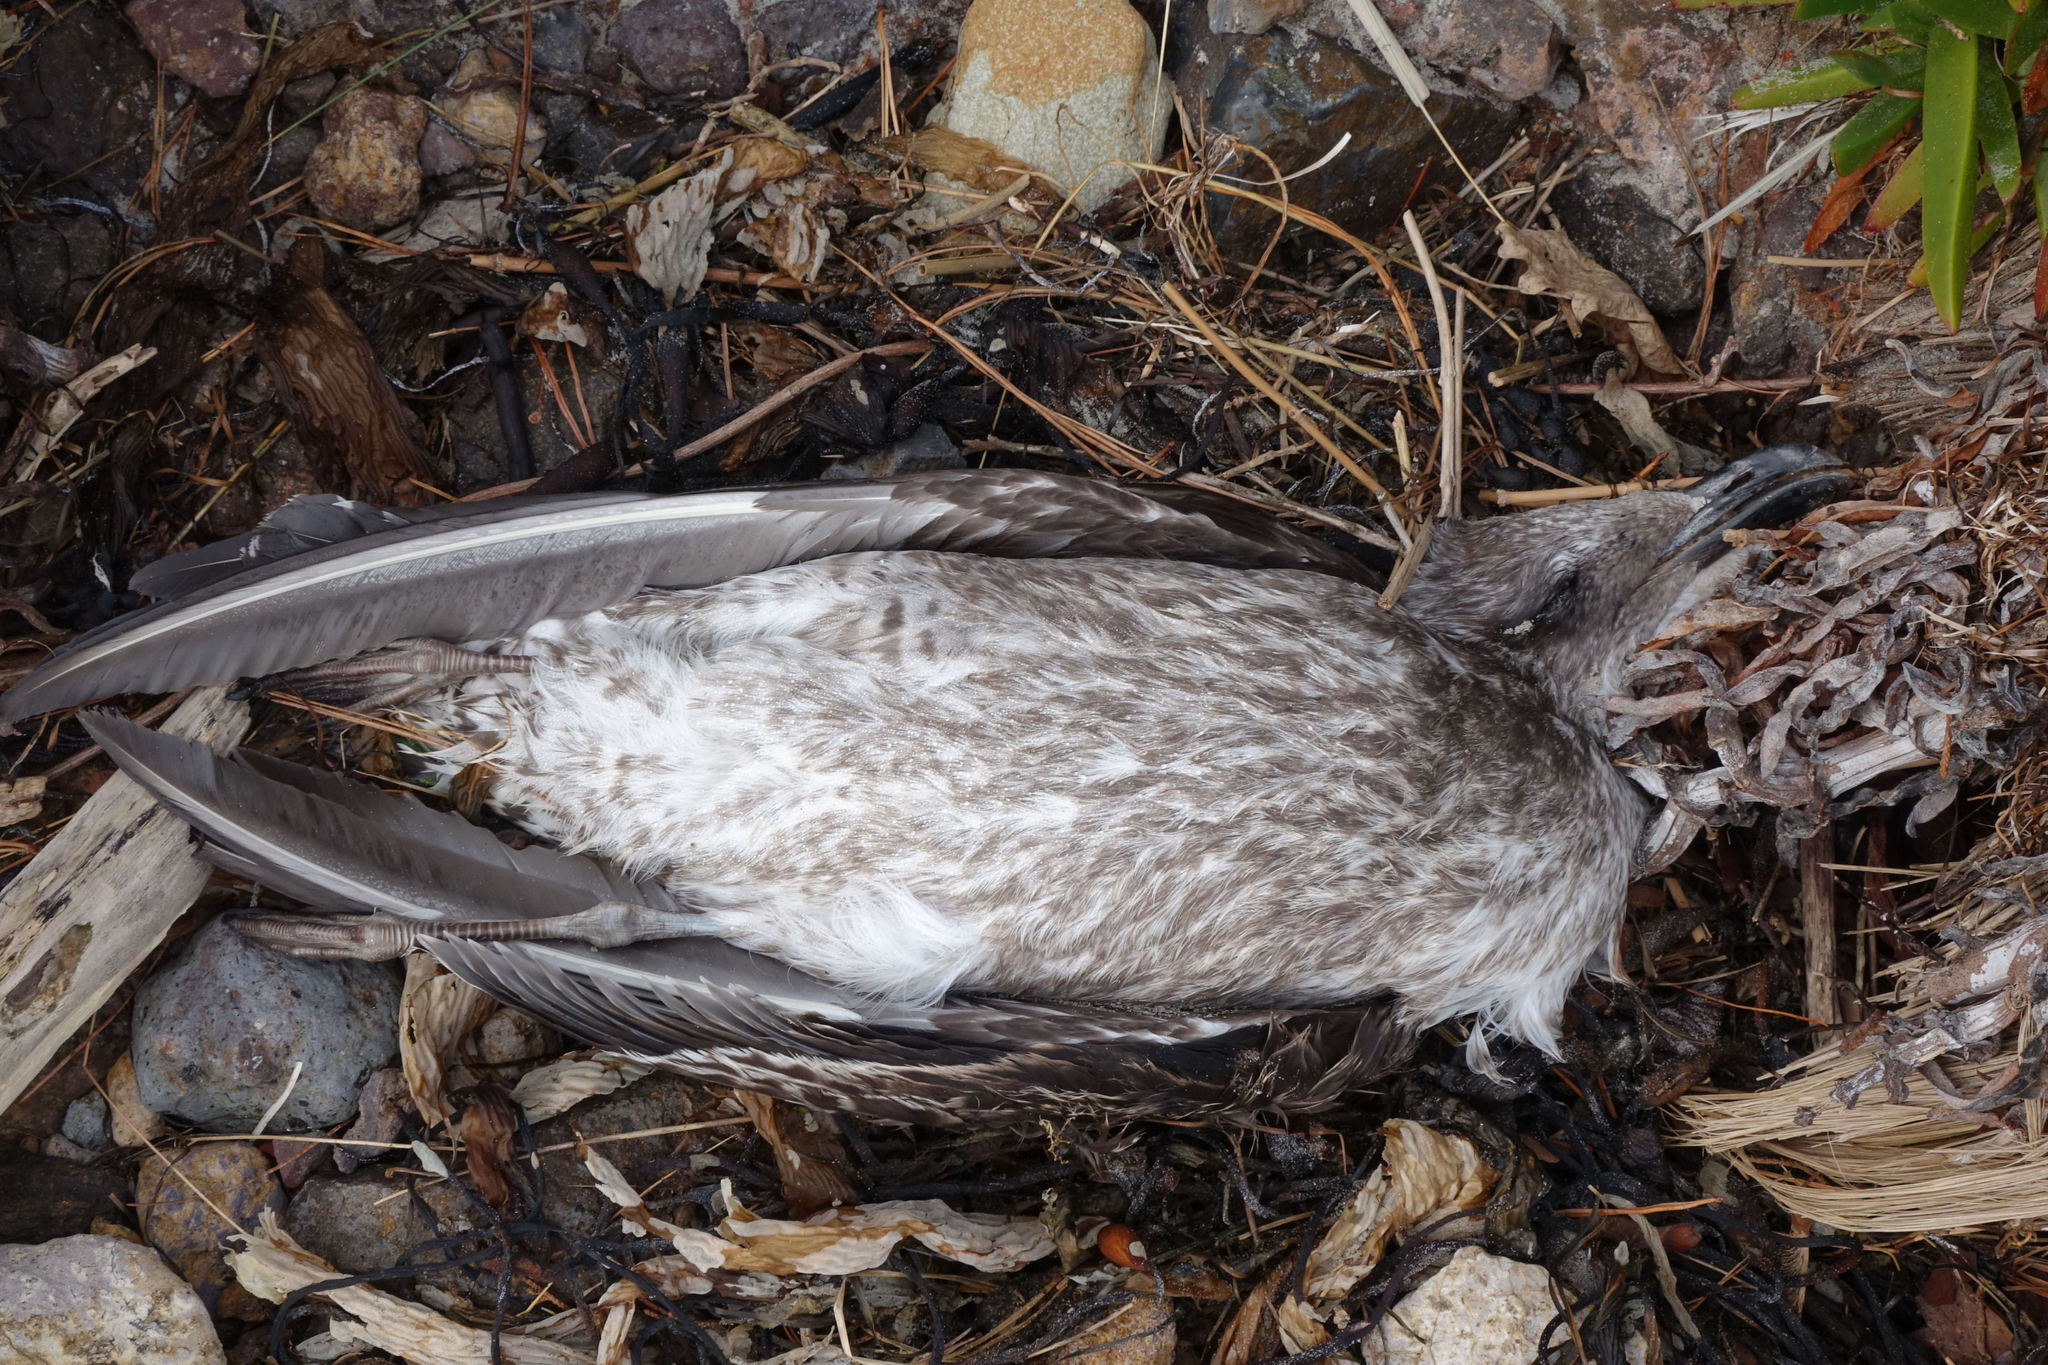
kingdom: Animalia
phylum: Chordata
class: Aves
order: Charadriiformes
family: Laridae
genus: Larus
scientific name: Larus dominicanus
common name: Kelp gull
